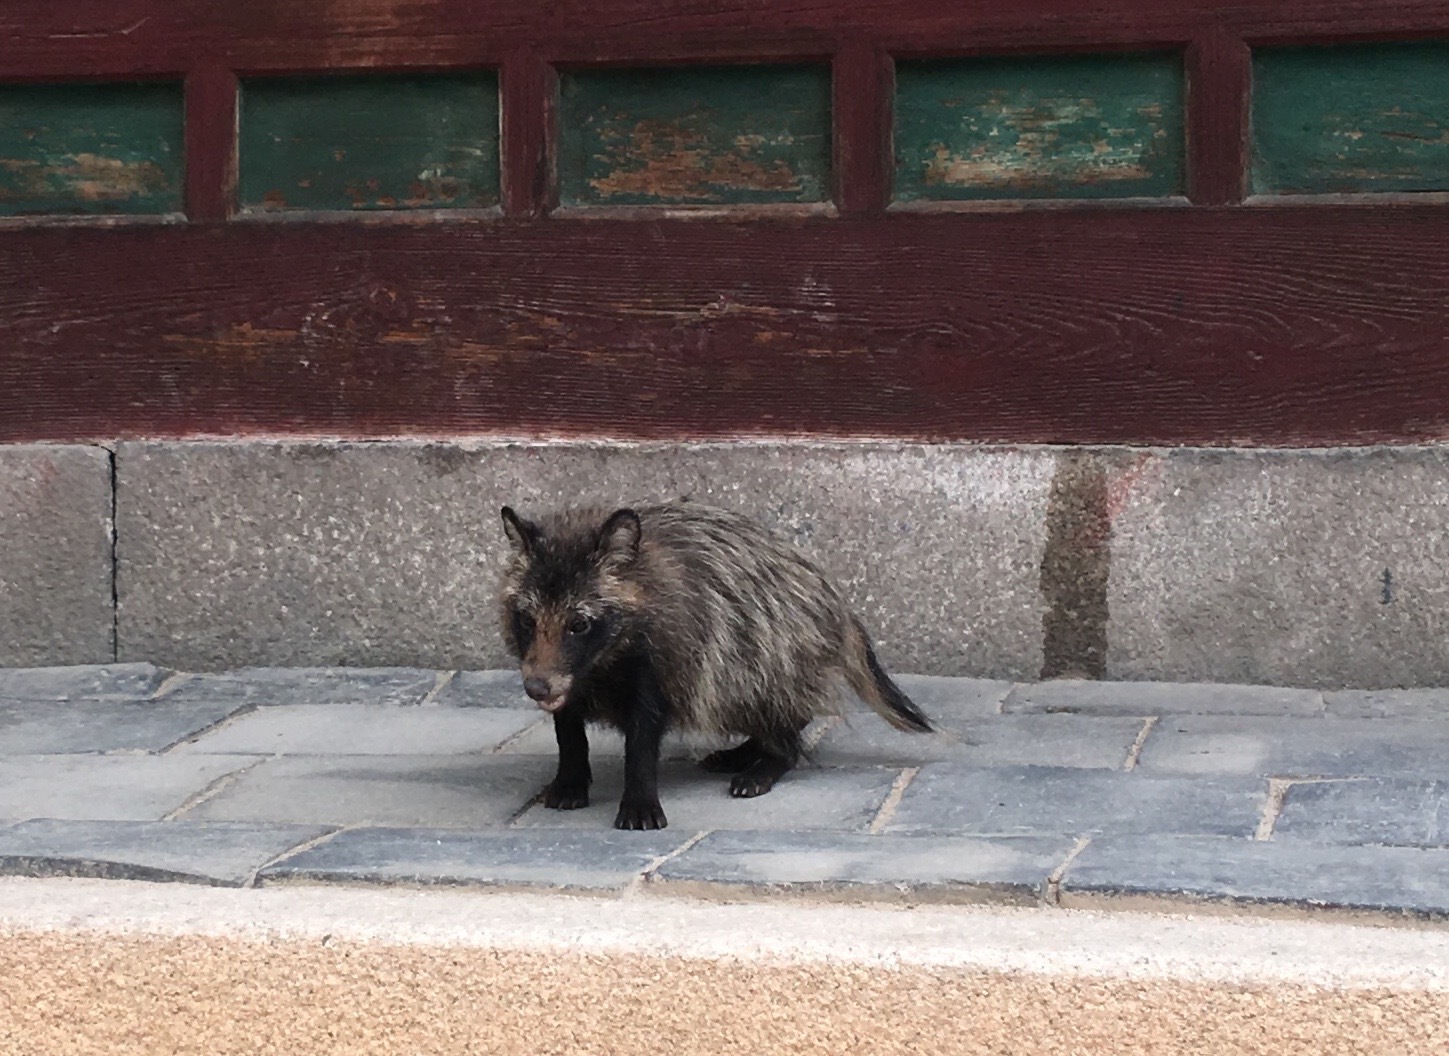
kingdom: Animalia
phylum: Chordata
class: Mammalia
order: Carnivora
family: Canidae
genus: Nyctereutes
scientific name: Nyctereutes procyonoides
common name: Raccoon dog
